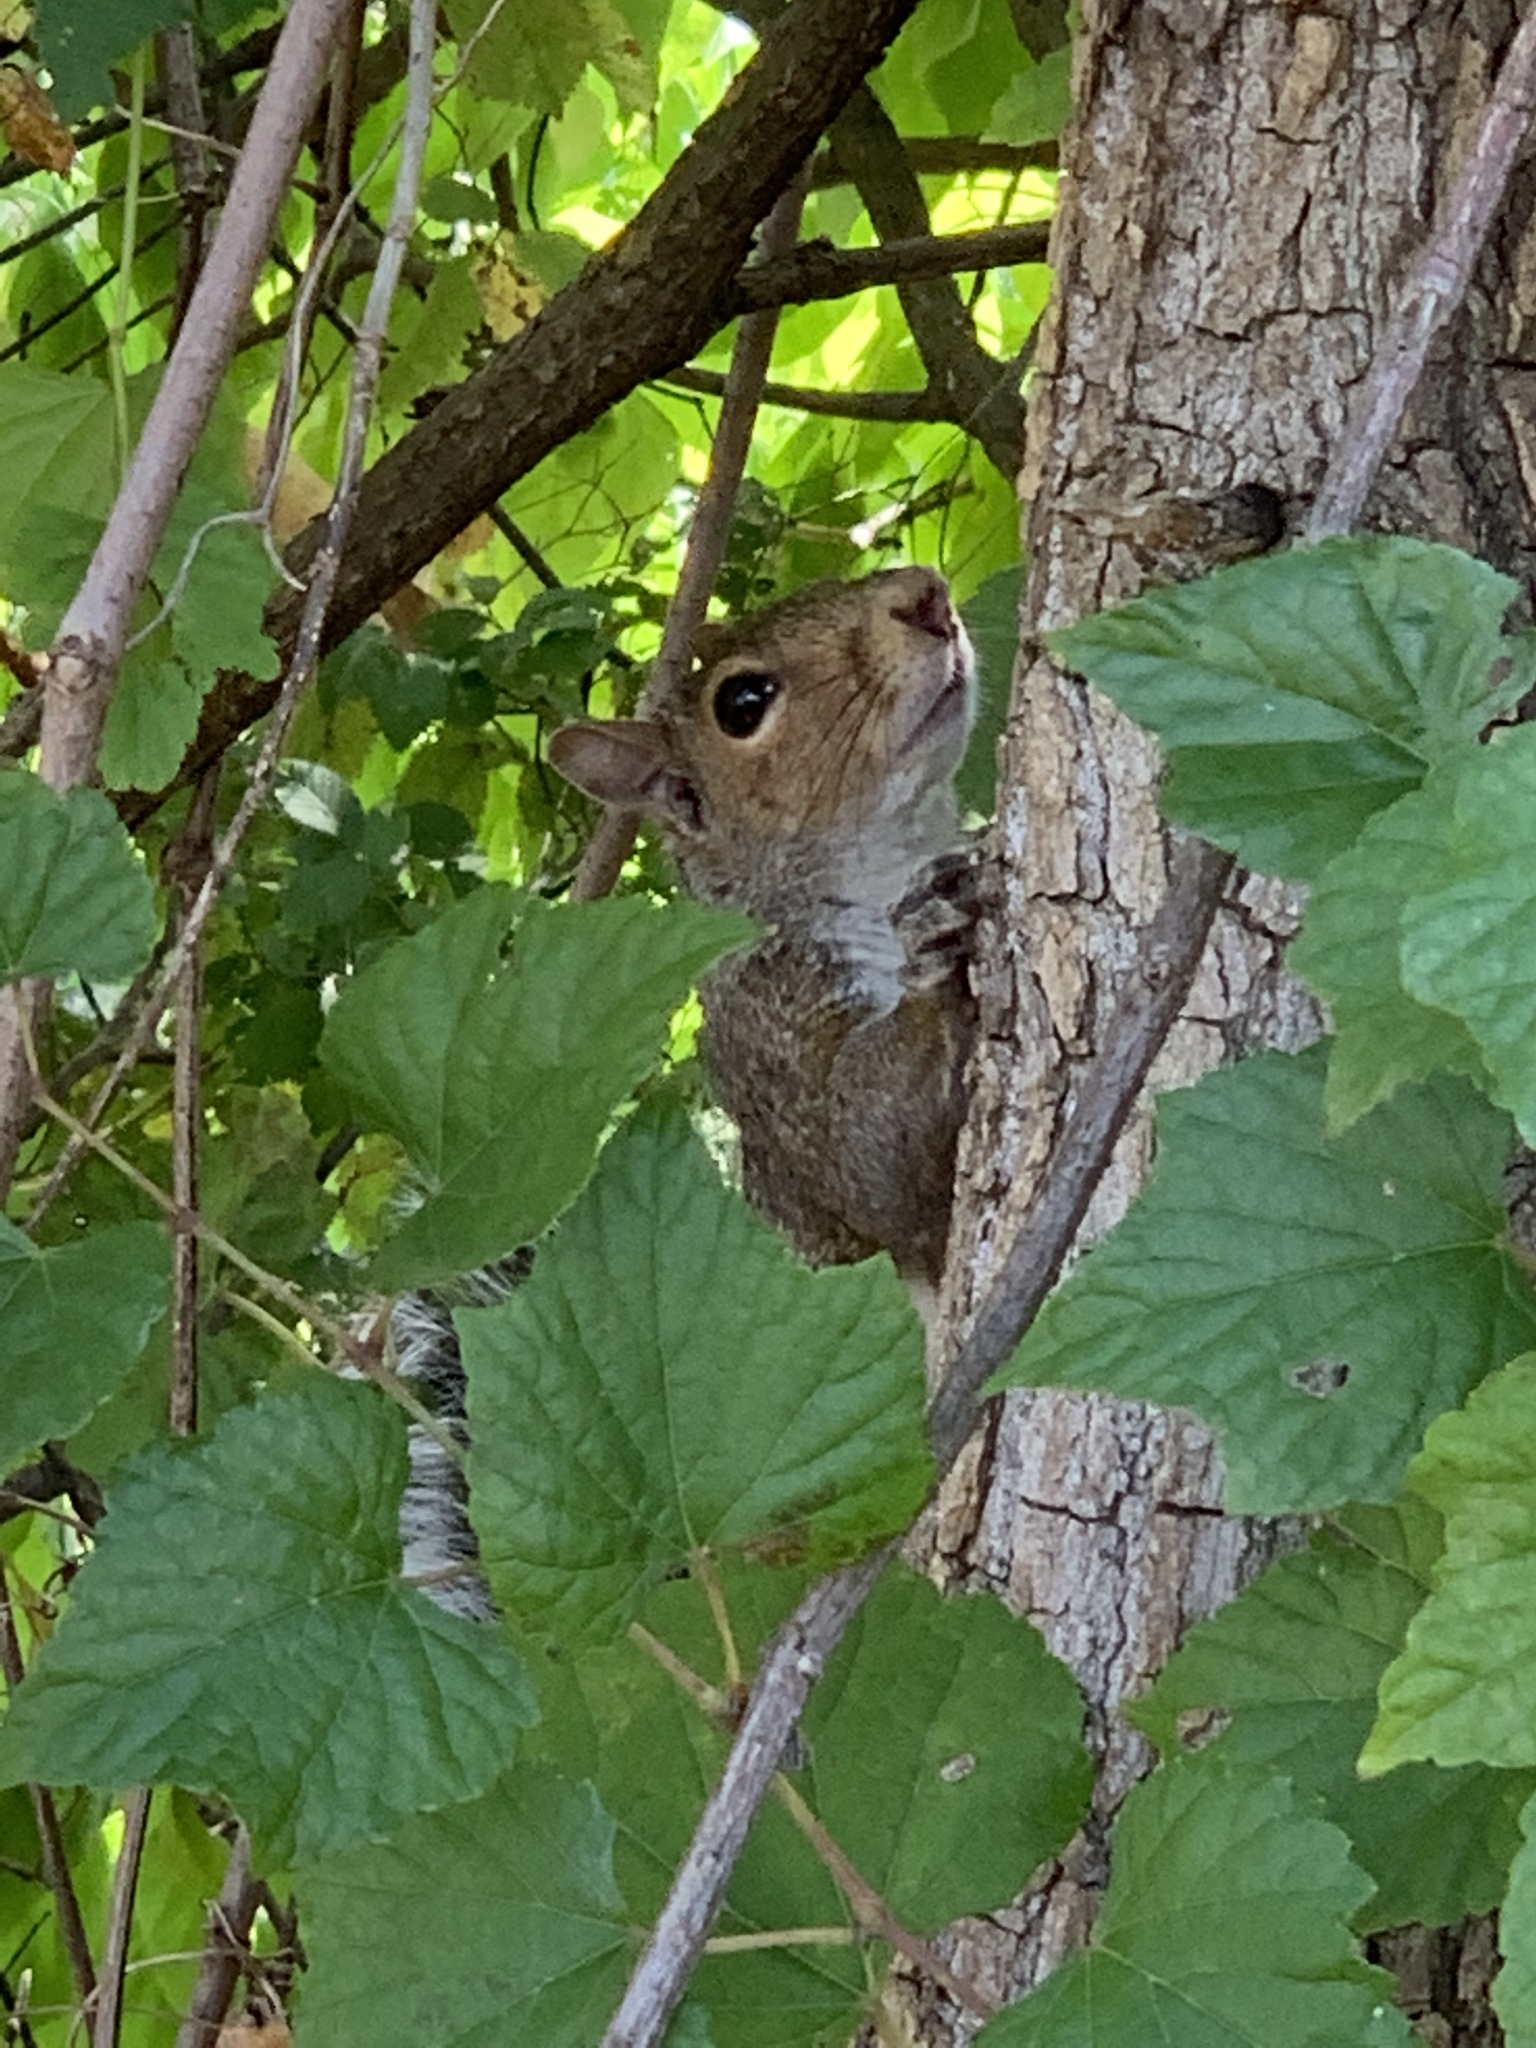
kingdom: Animalia
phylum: Chordata
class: Mammalia
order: Rodentia
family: Sciuridae
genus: Sciurus
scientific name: Sciurus carolinensis
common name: Eastern gray squirrel
